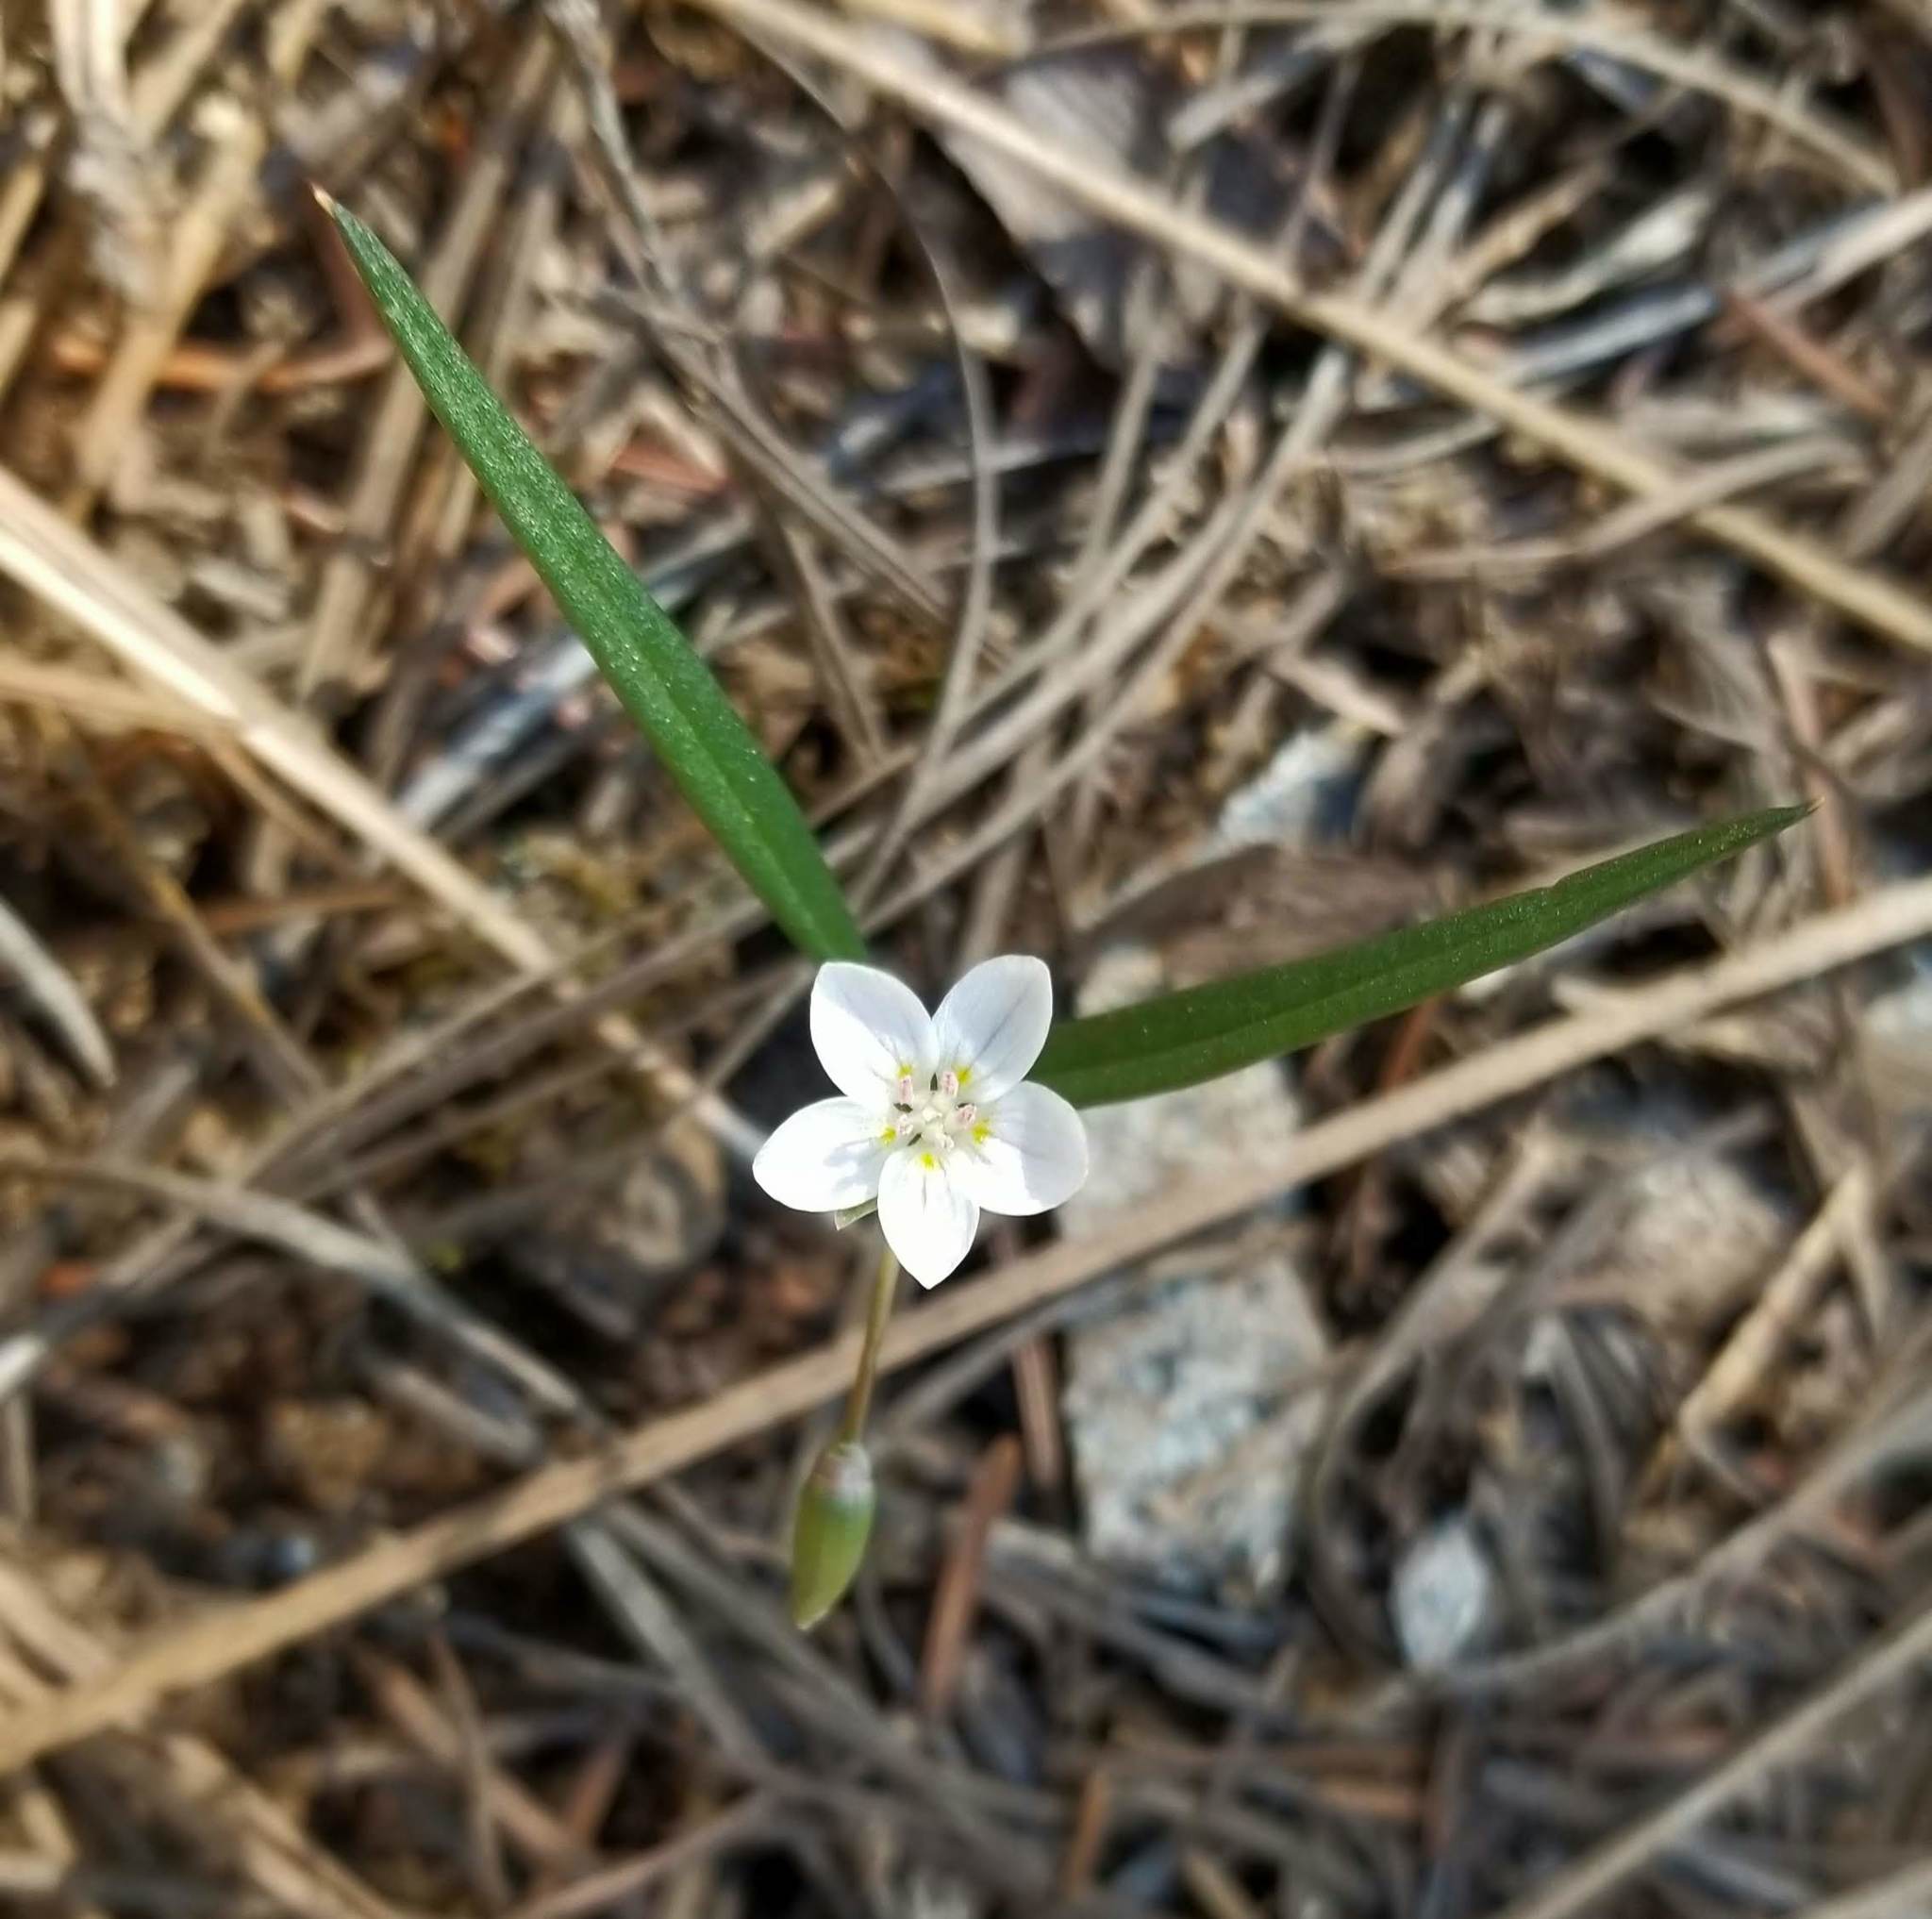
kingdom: Plantae
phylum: Tracheophyta
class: Magnoliopsida
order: Caryophyllales
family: Montiaceae
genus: Claytonia
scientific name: Claytonia serpenticola
